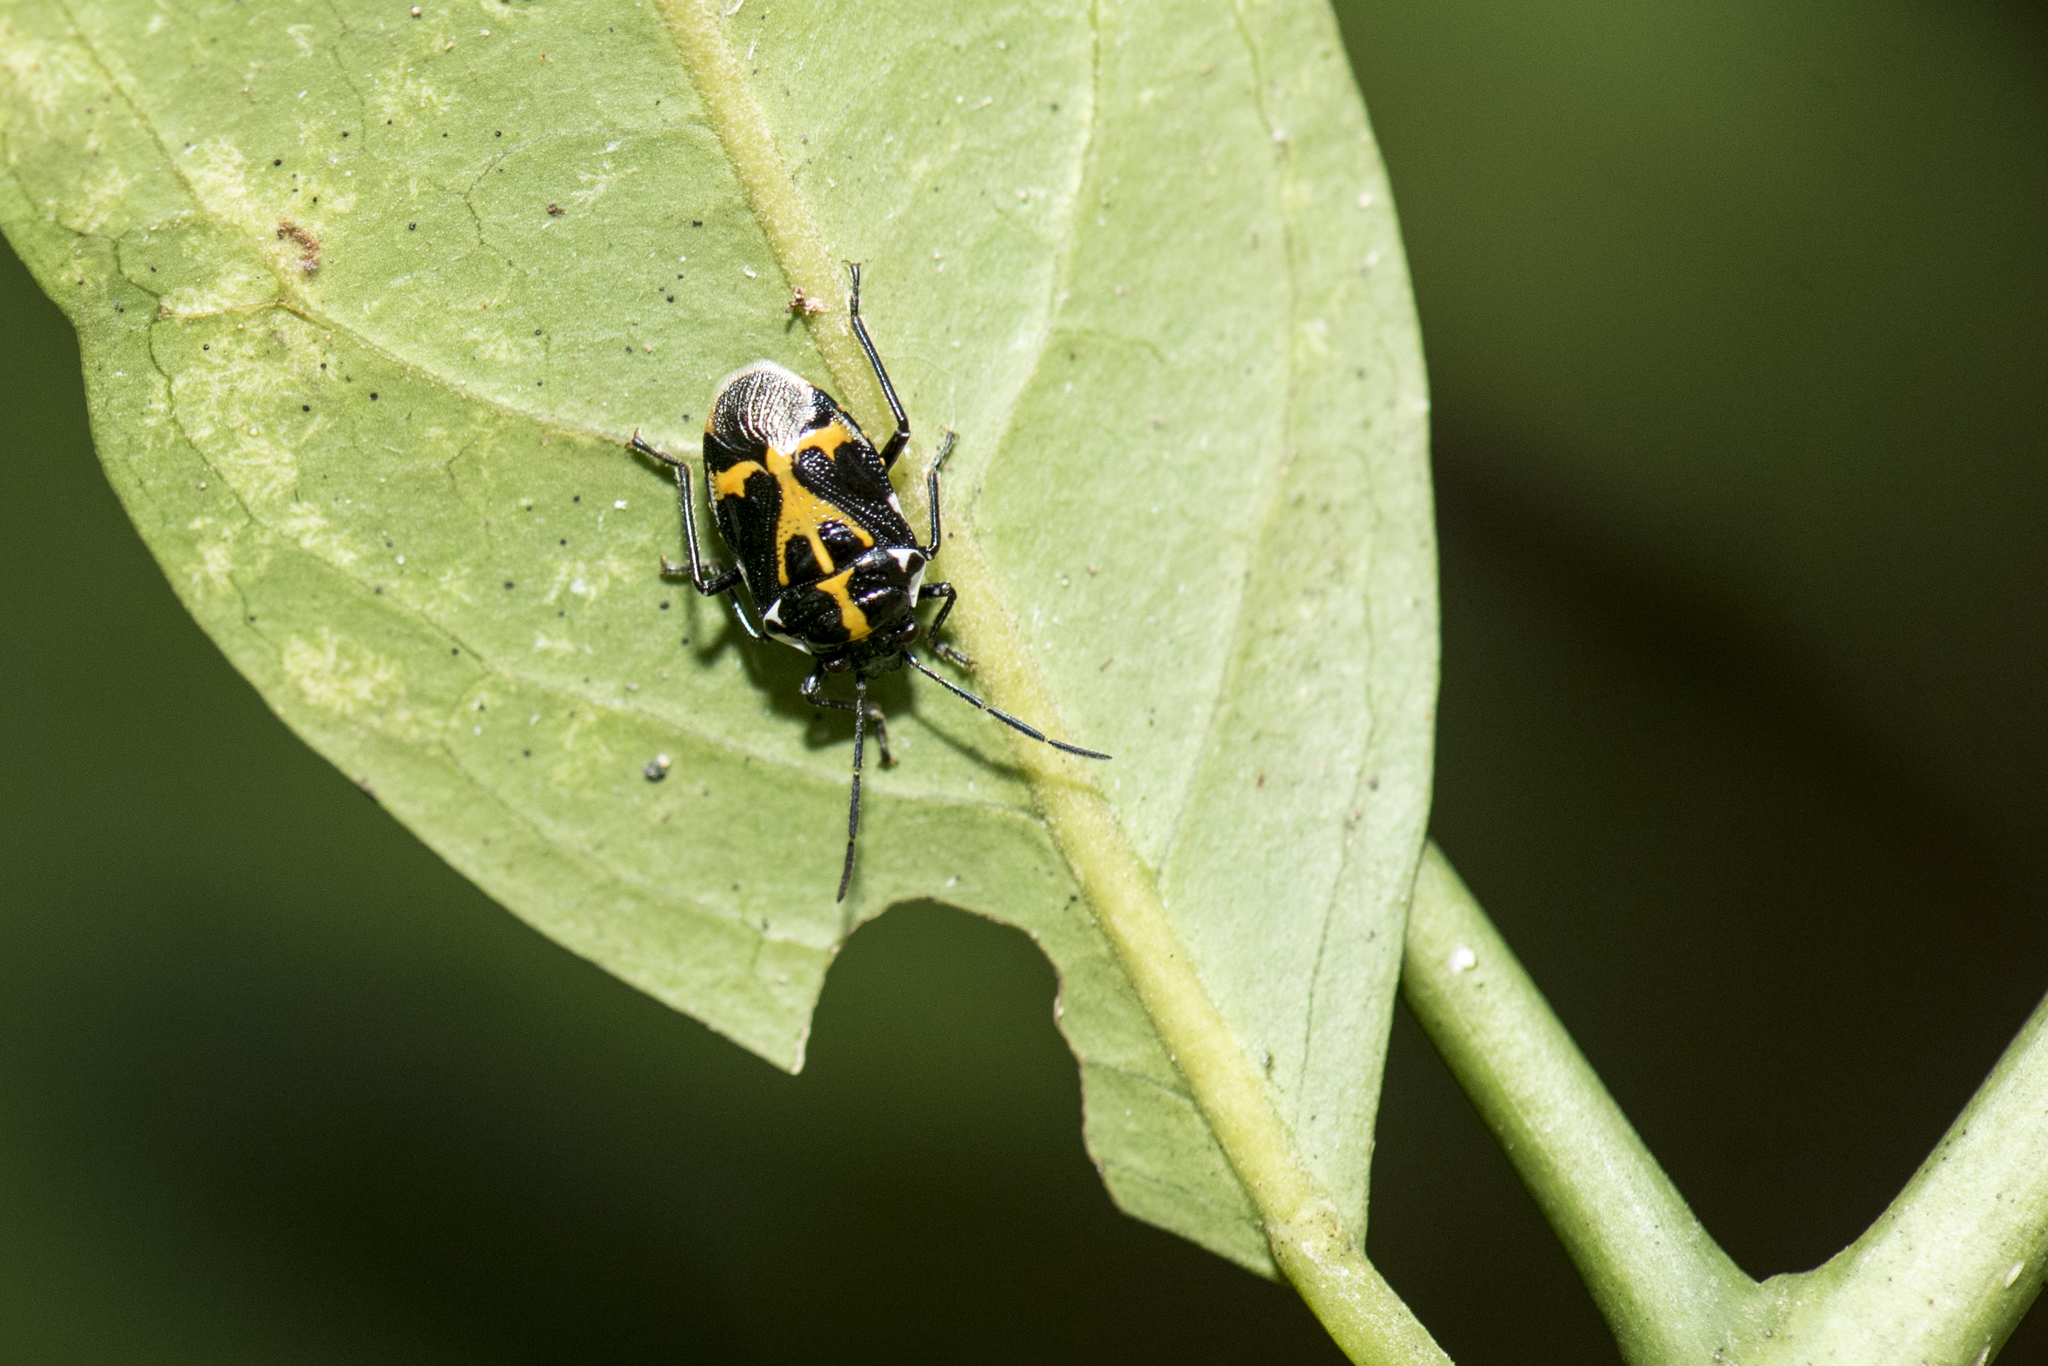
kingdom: Animalia
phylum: Arthropoda
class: Insecta
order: Hemiptera
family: Pentatomidae
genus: Stenozygum
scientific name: Stenozygum speciosum
